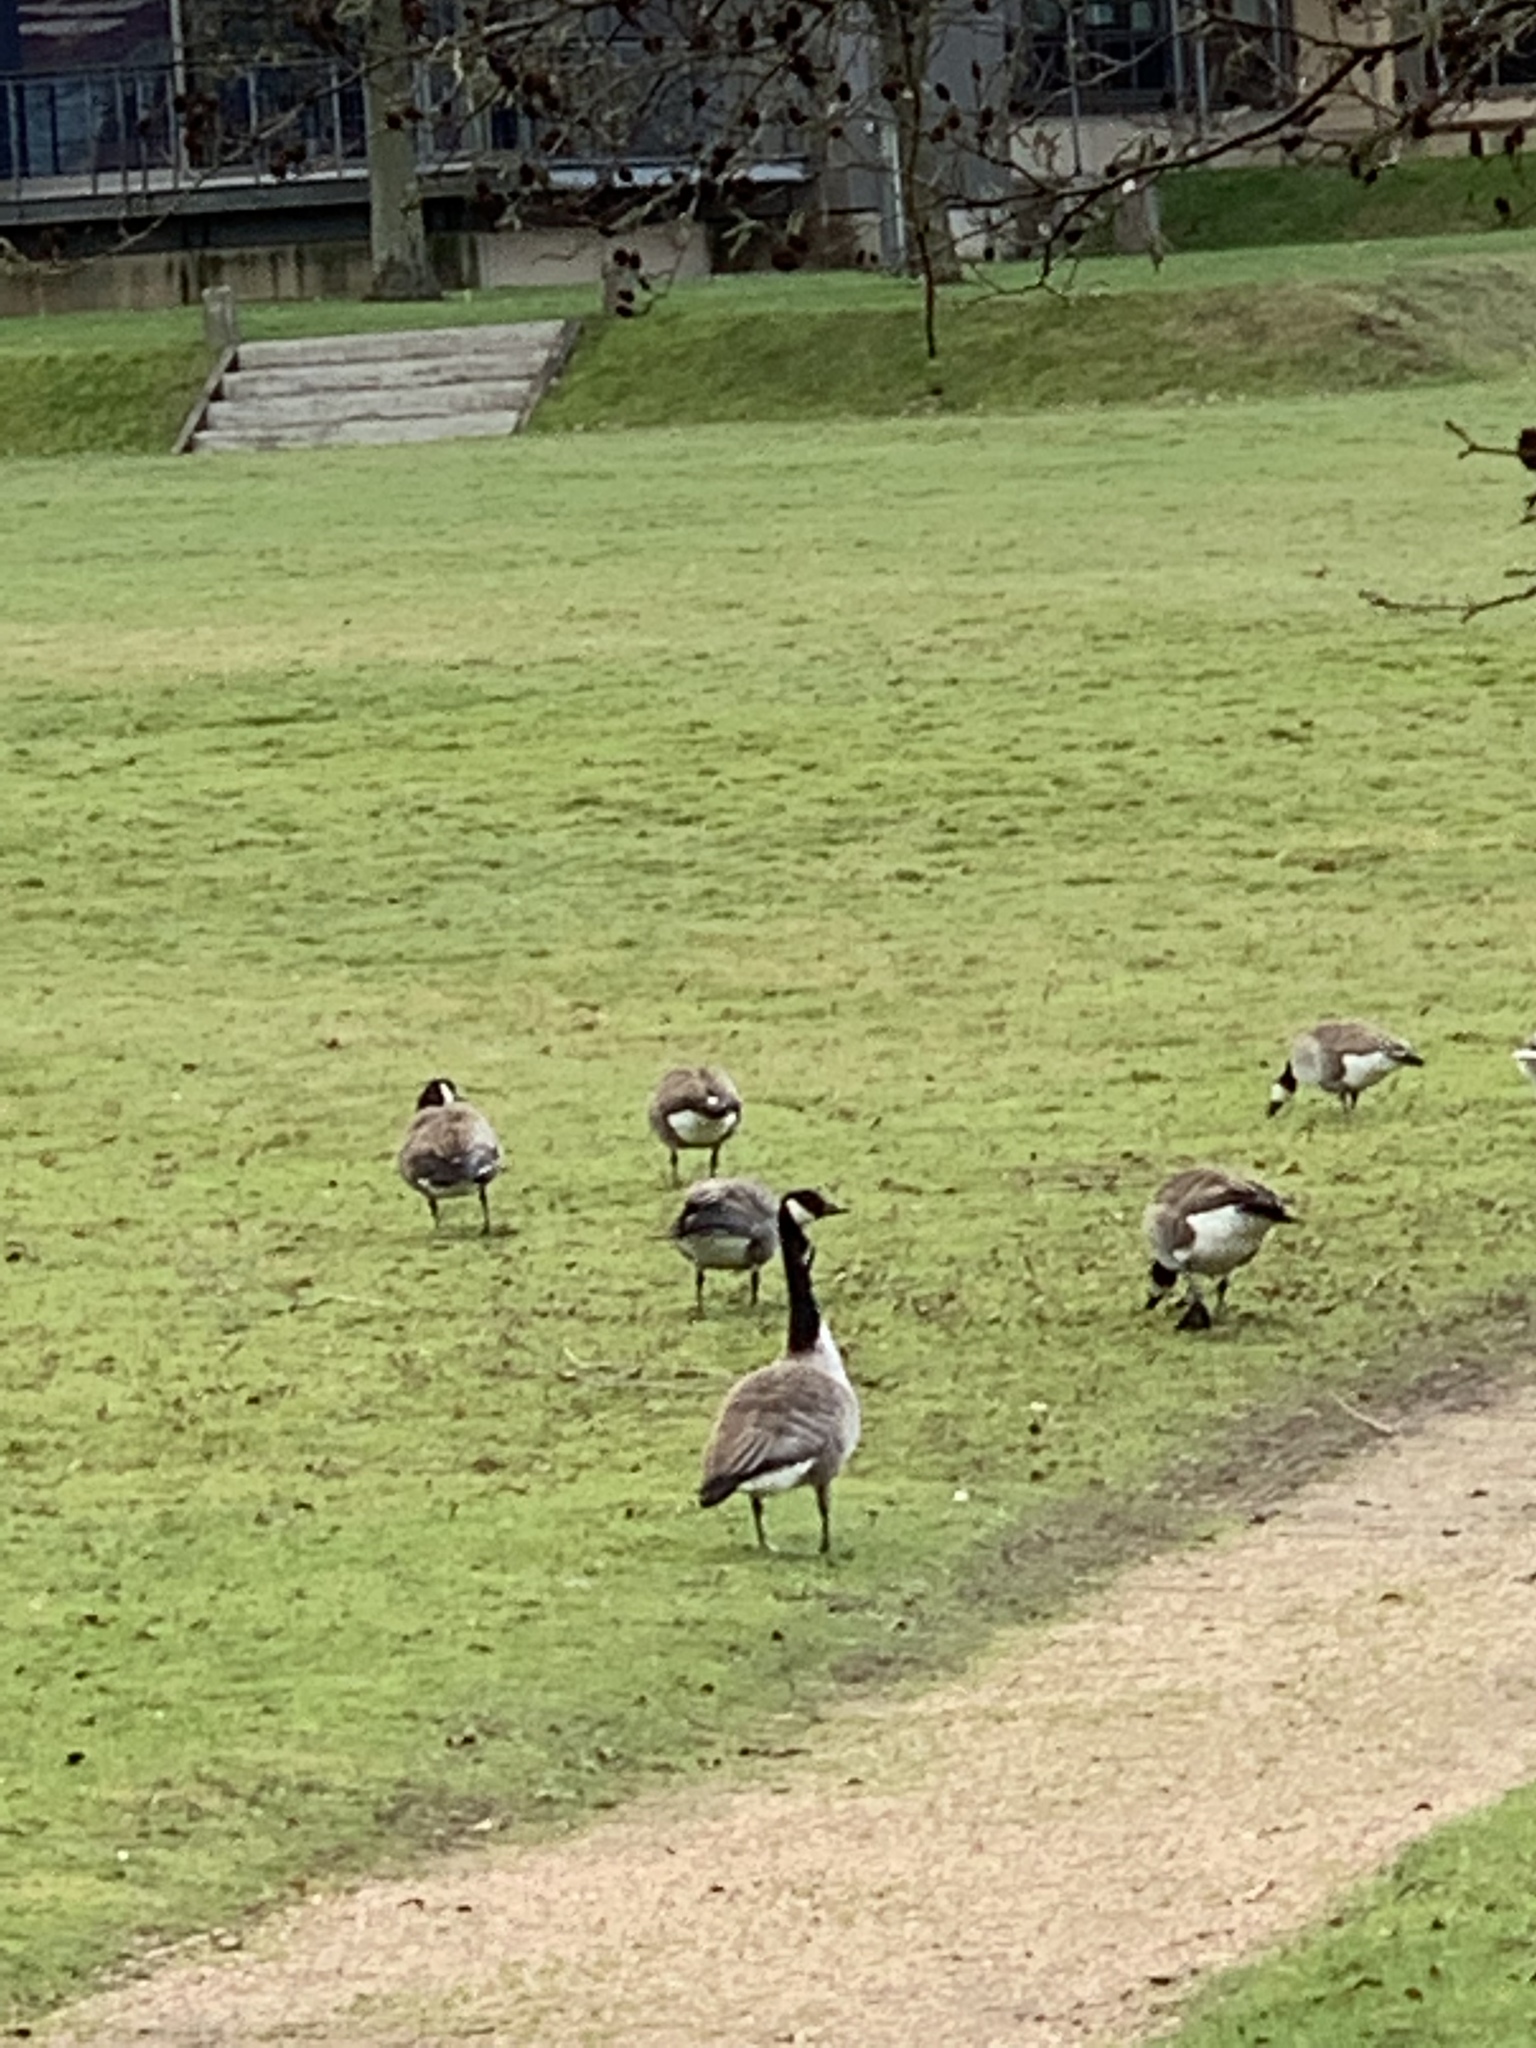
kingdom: Animalia
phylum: Chordata
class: Aves
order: Anseriformes
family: Anatidae
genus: Branta
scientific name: Branta canadensis
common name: Canada goose
